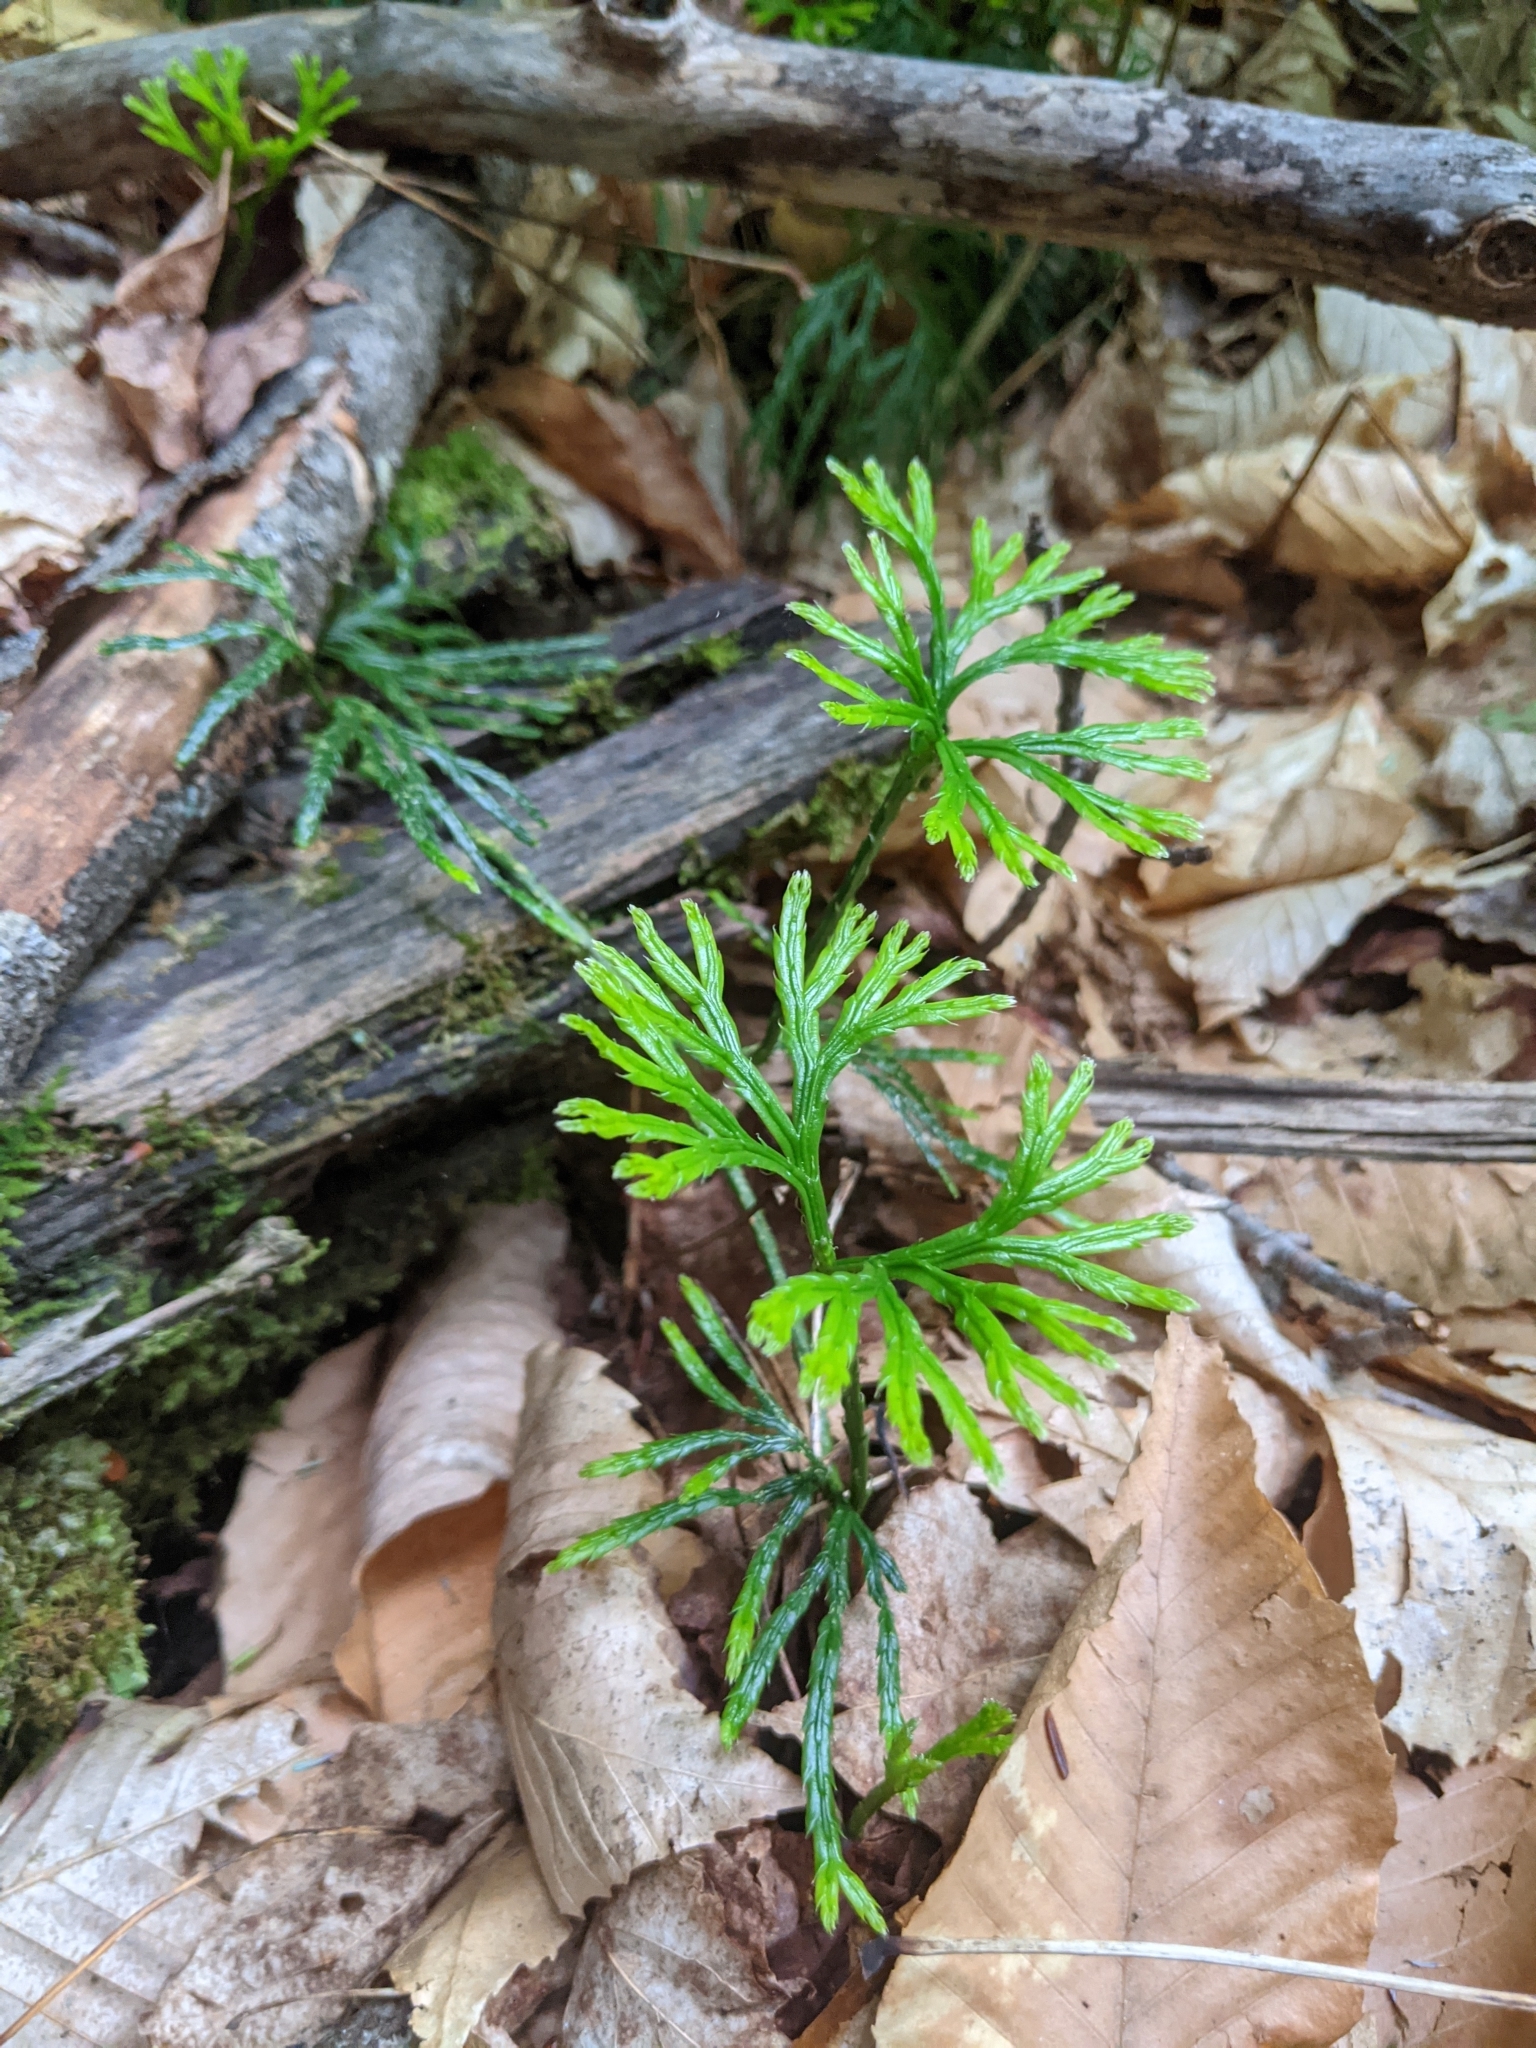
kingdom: Plantae
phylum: Tracheophyta
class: Lycopodiopsida
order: Lycopodiales
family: Lycopodiaceae
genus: Diphasiastrum
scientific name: Diphasiastrum digitatum
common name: Southern running-pine
